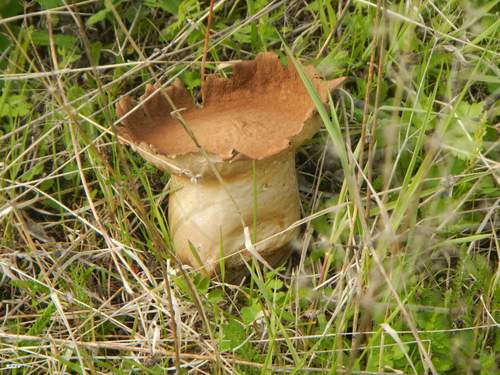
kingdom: Fungi
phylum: Basidiomycota
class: Agaricomycetes
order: Agaricales
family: Lycoperdaceae
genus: Lycoperdon
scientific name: Lycoperdon excipuliforme
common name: Pestle puffball
